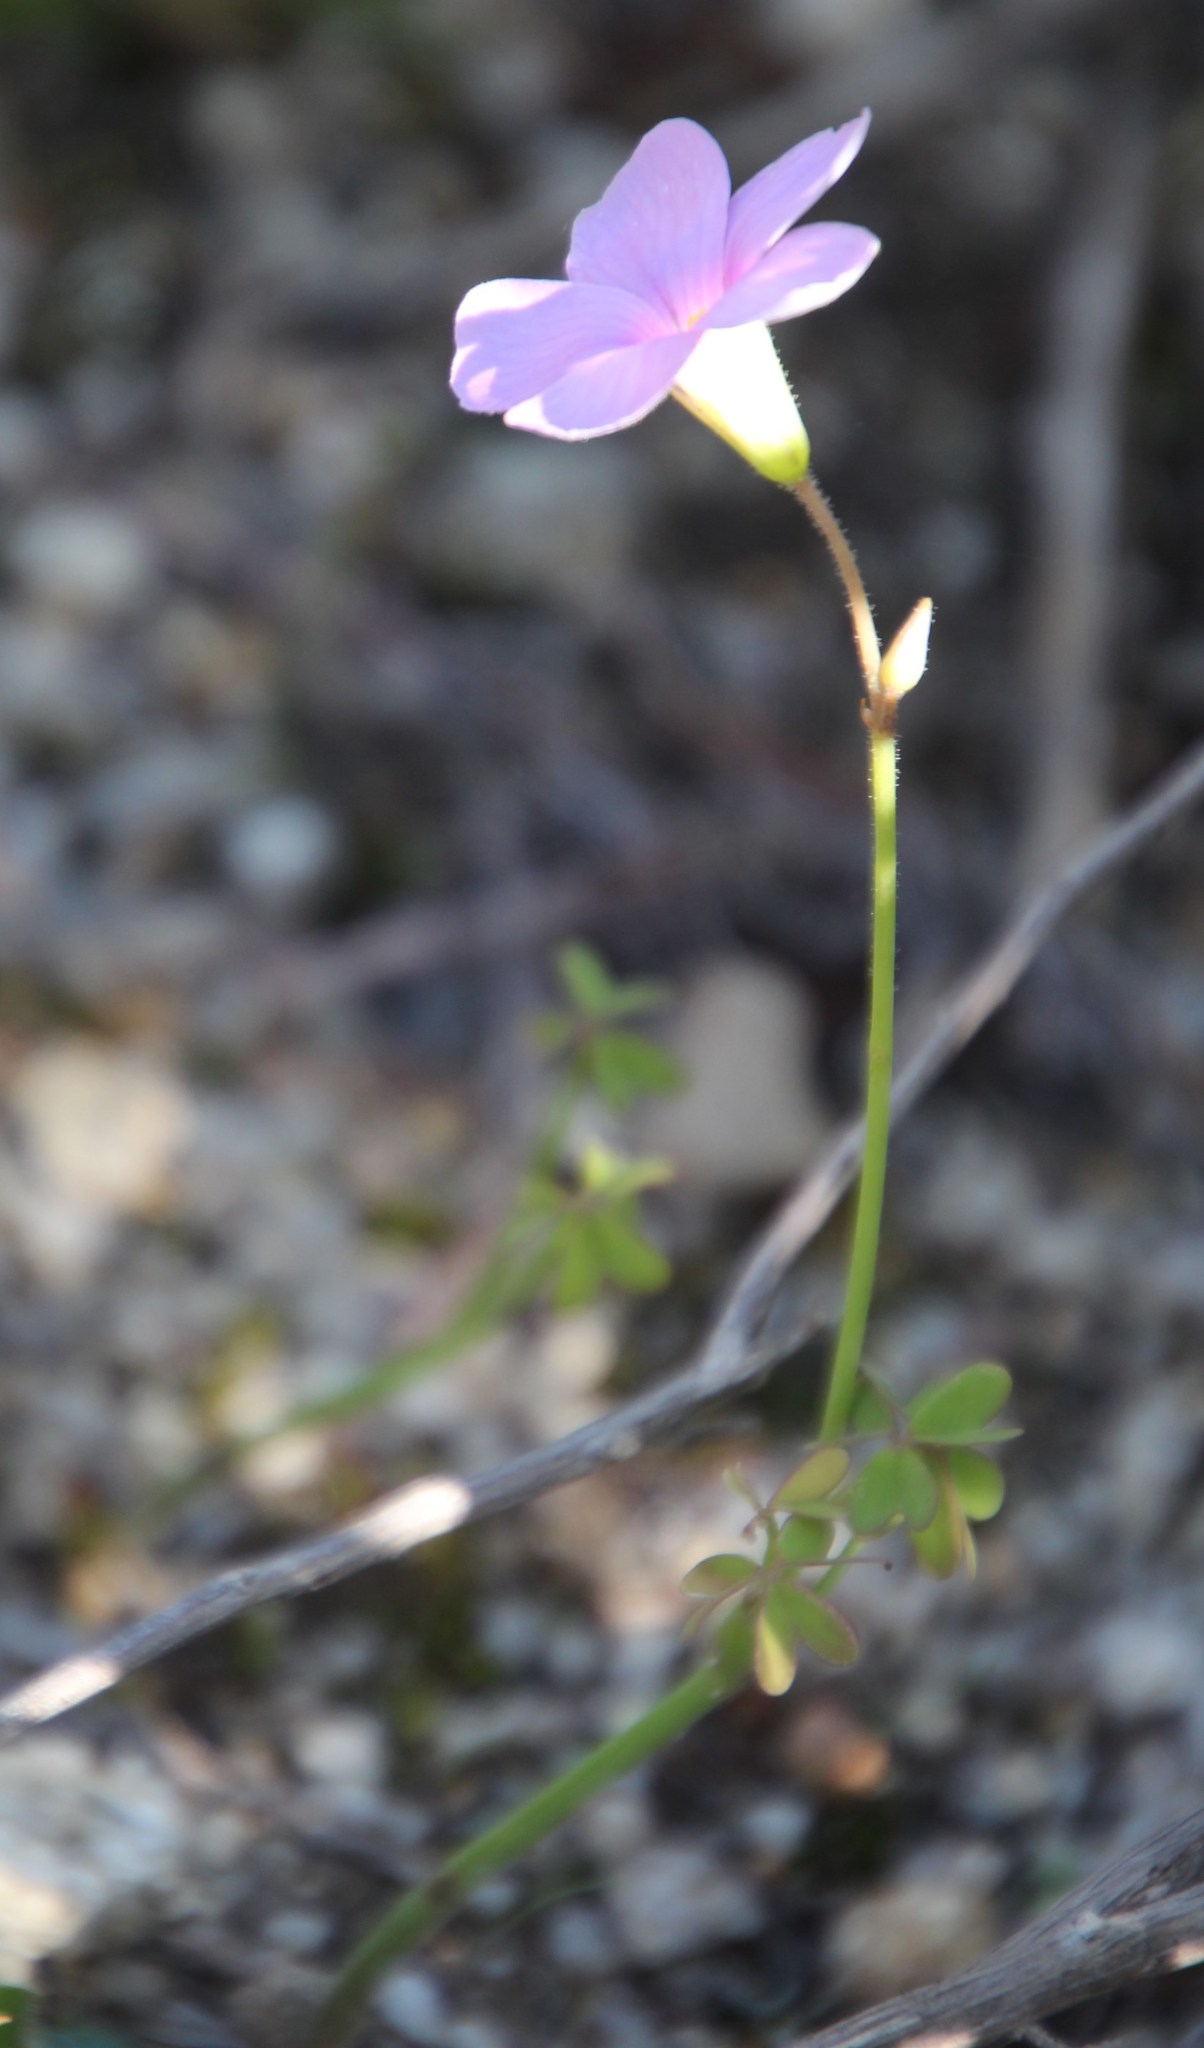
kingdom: Plantae
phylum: Tracheophyta
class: Magnoliopsida
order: Oxalidales
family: Oxalidaceae
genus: Oxalis
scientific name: Oxalis livida
